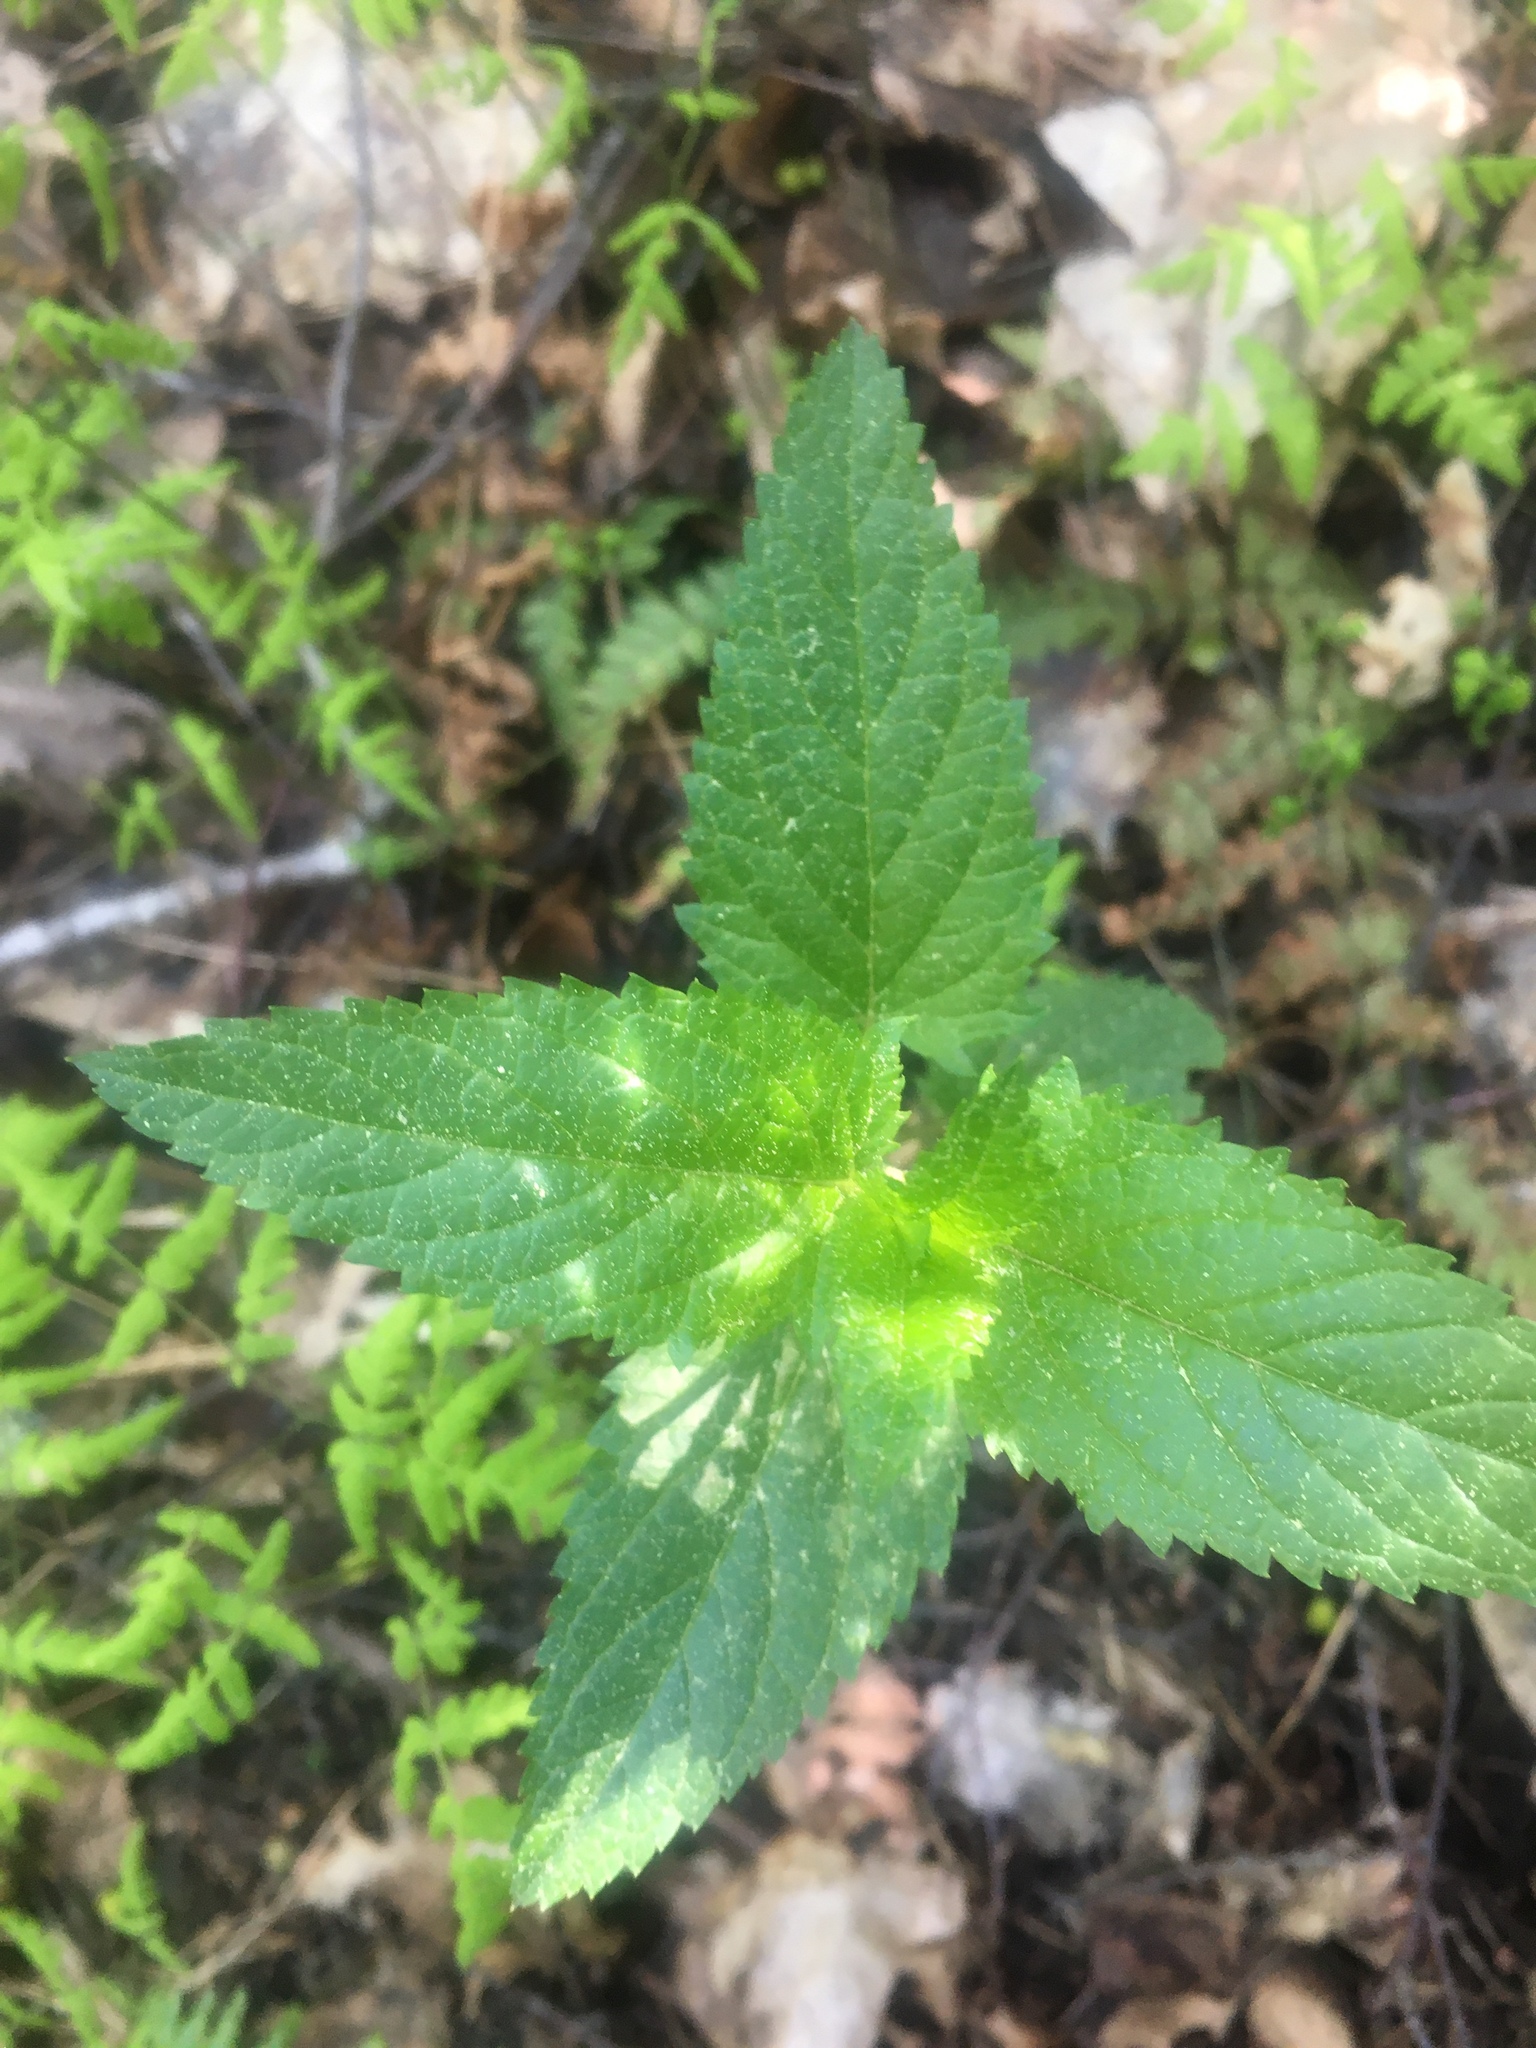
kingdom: Plantae
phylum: Tracheophyta
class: Magnoliopsida
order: Lamiales
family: Scrophulariaceae
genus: Scrophularia
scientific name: Scrophularia nodosa
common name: Common figwort
